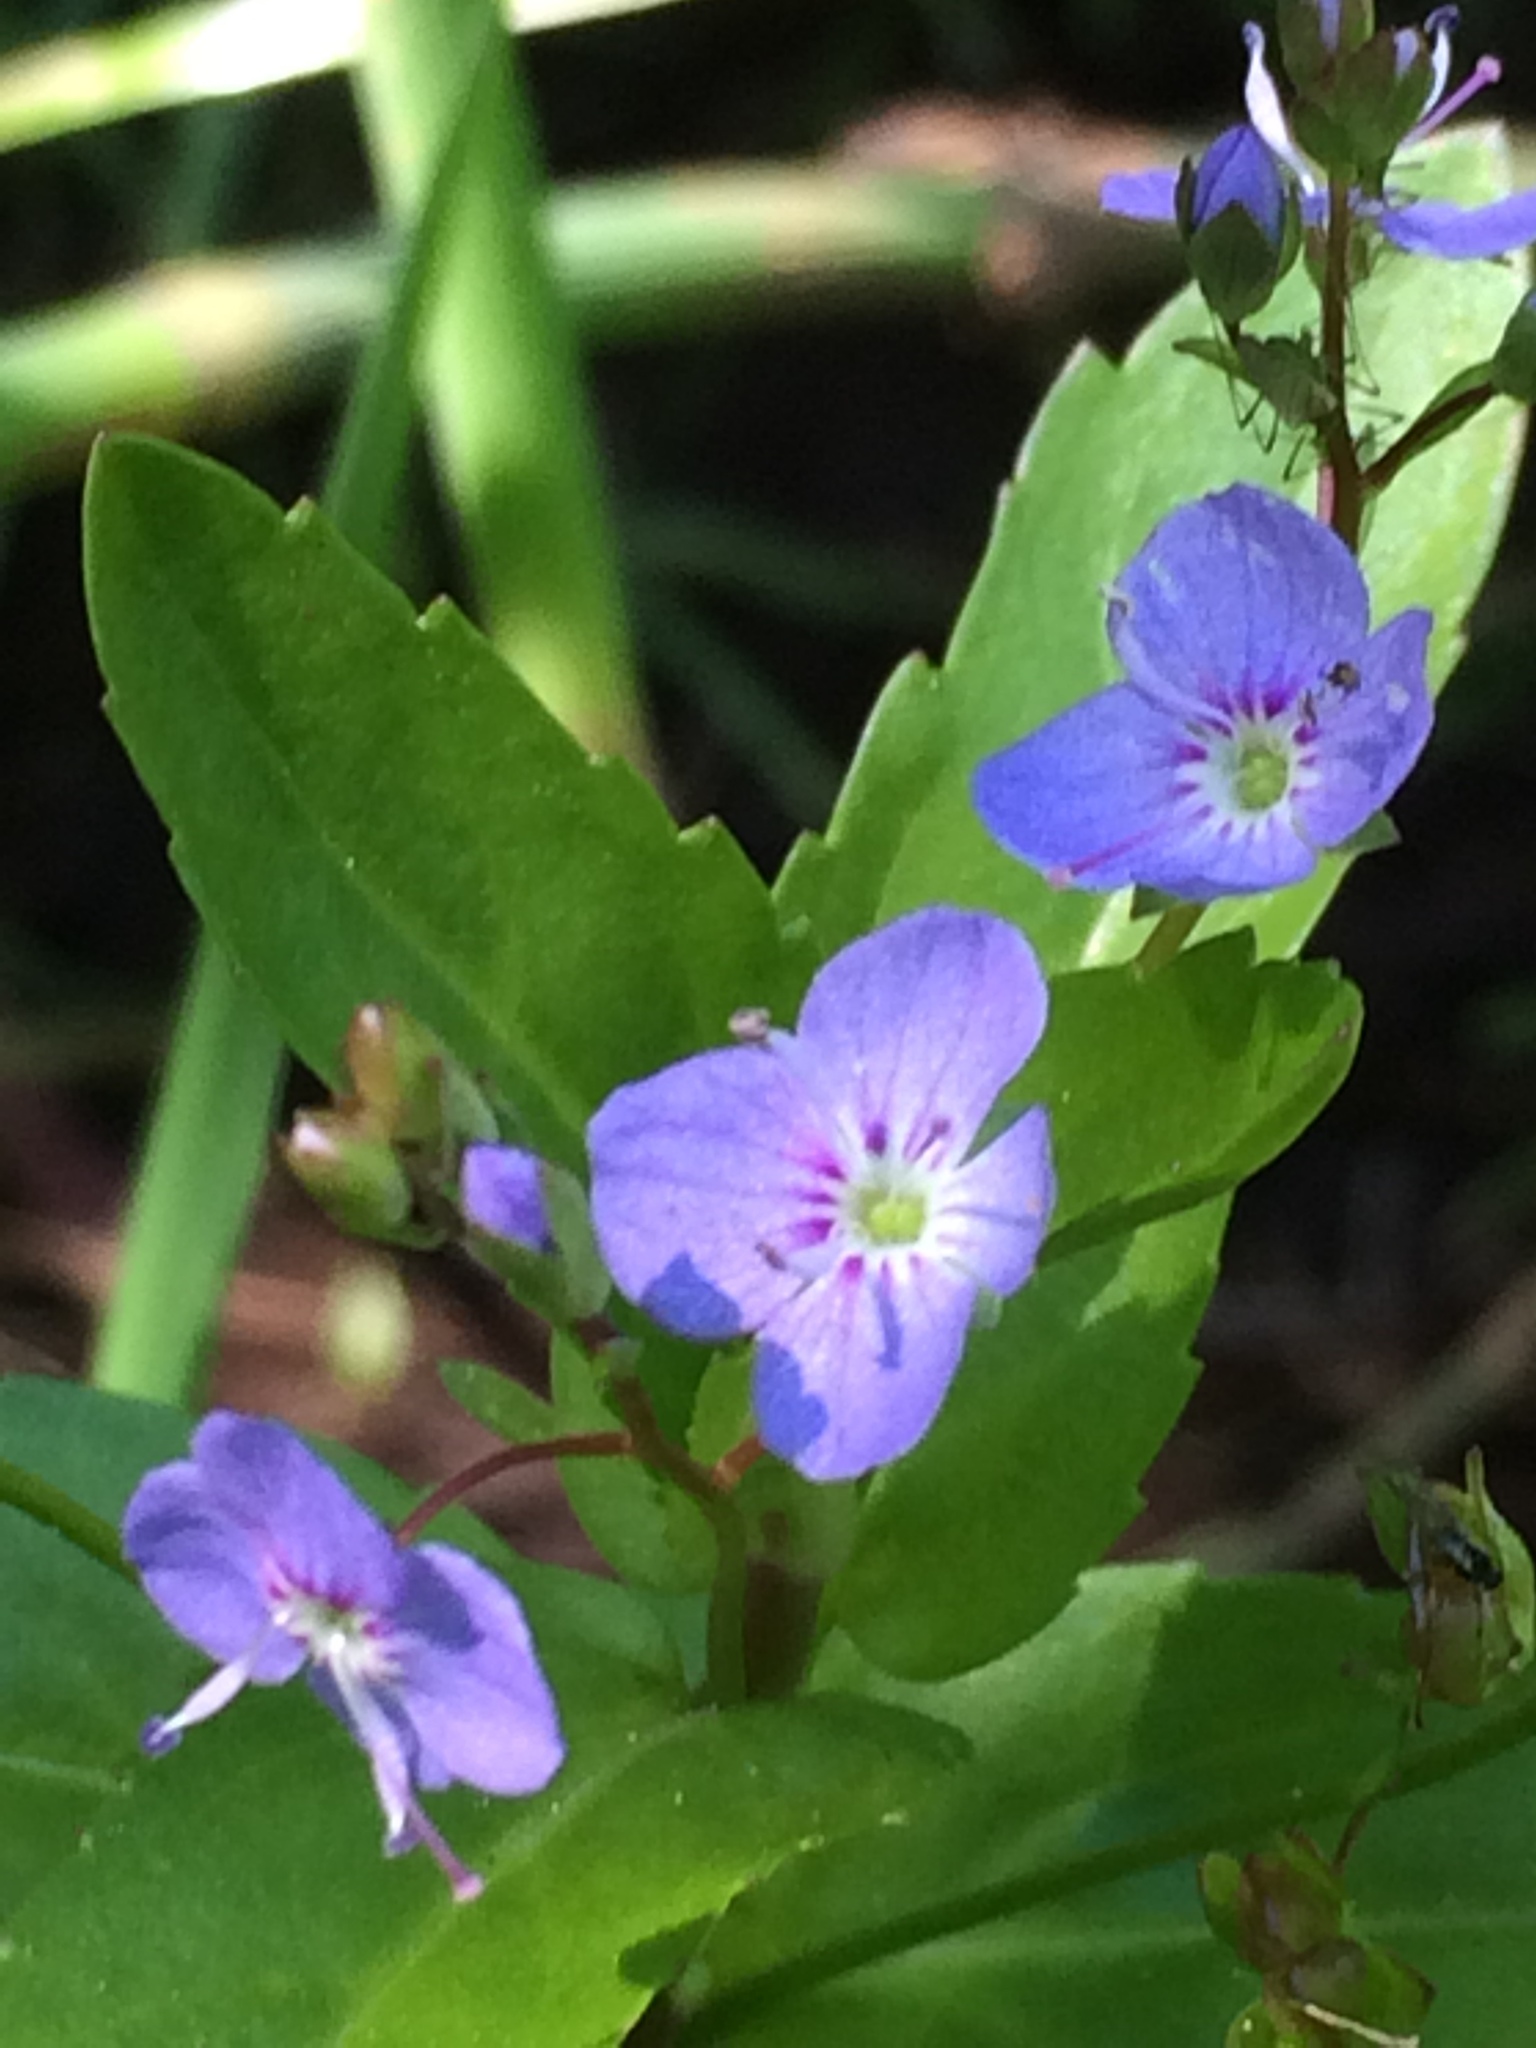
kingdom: Plantae
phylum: Tracheophyta
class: Magnoliopsida
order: Lamiales
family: Plantaginaceae
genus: Veronica
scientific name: Veronica americana
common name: American brooklime
